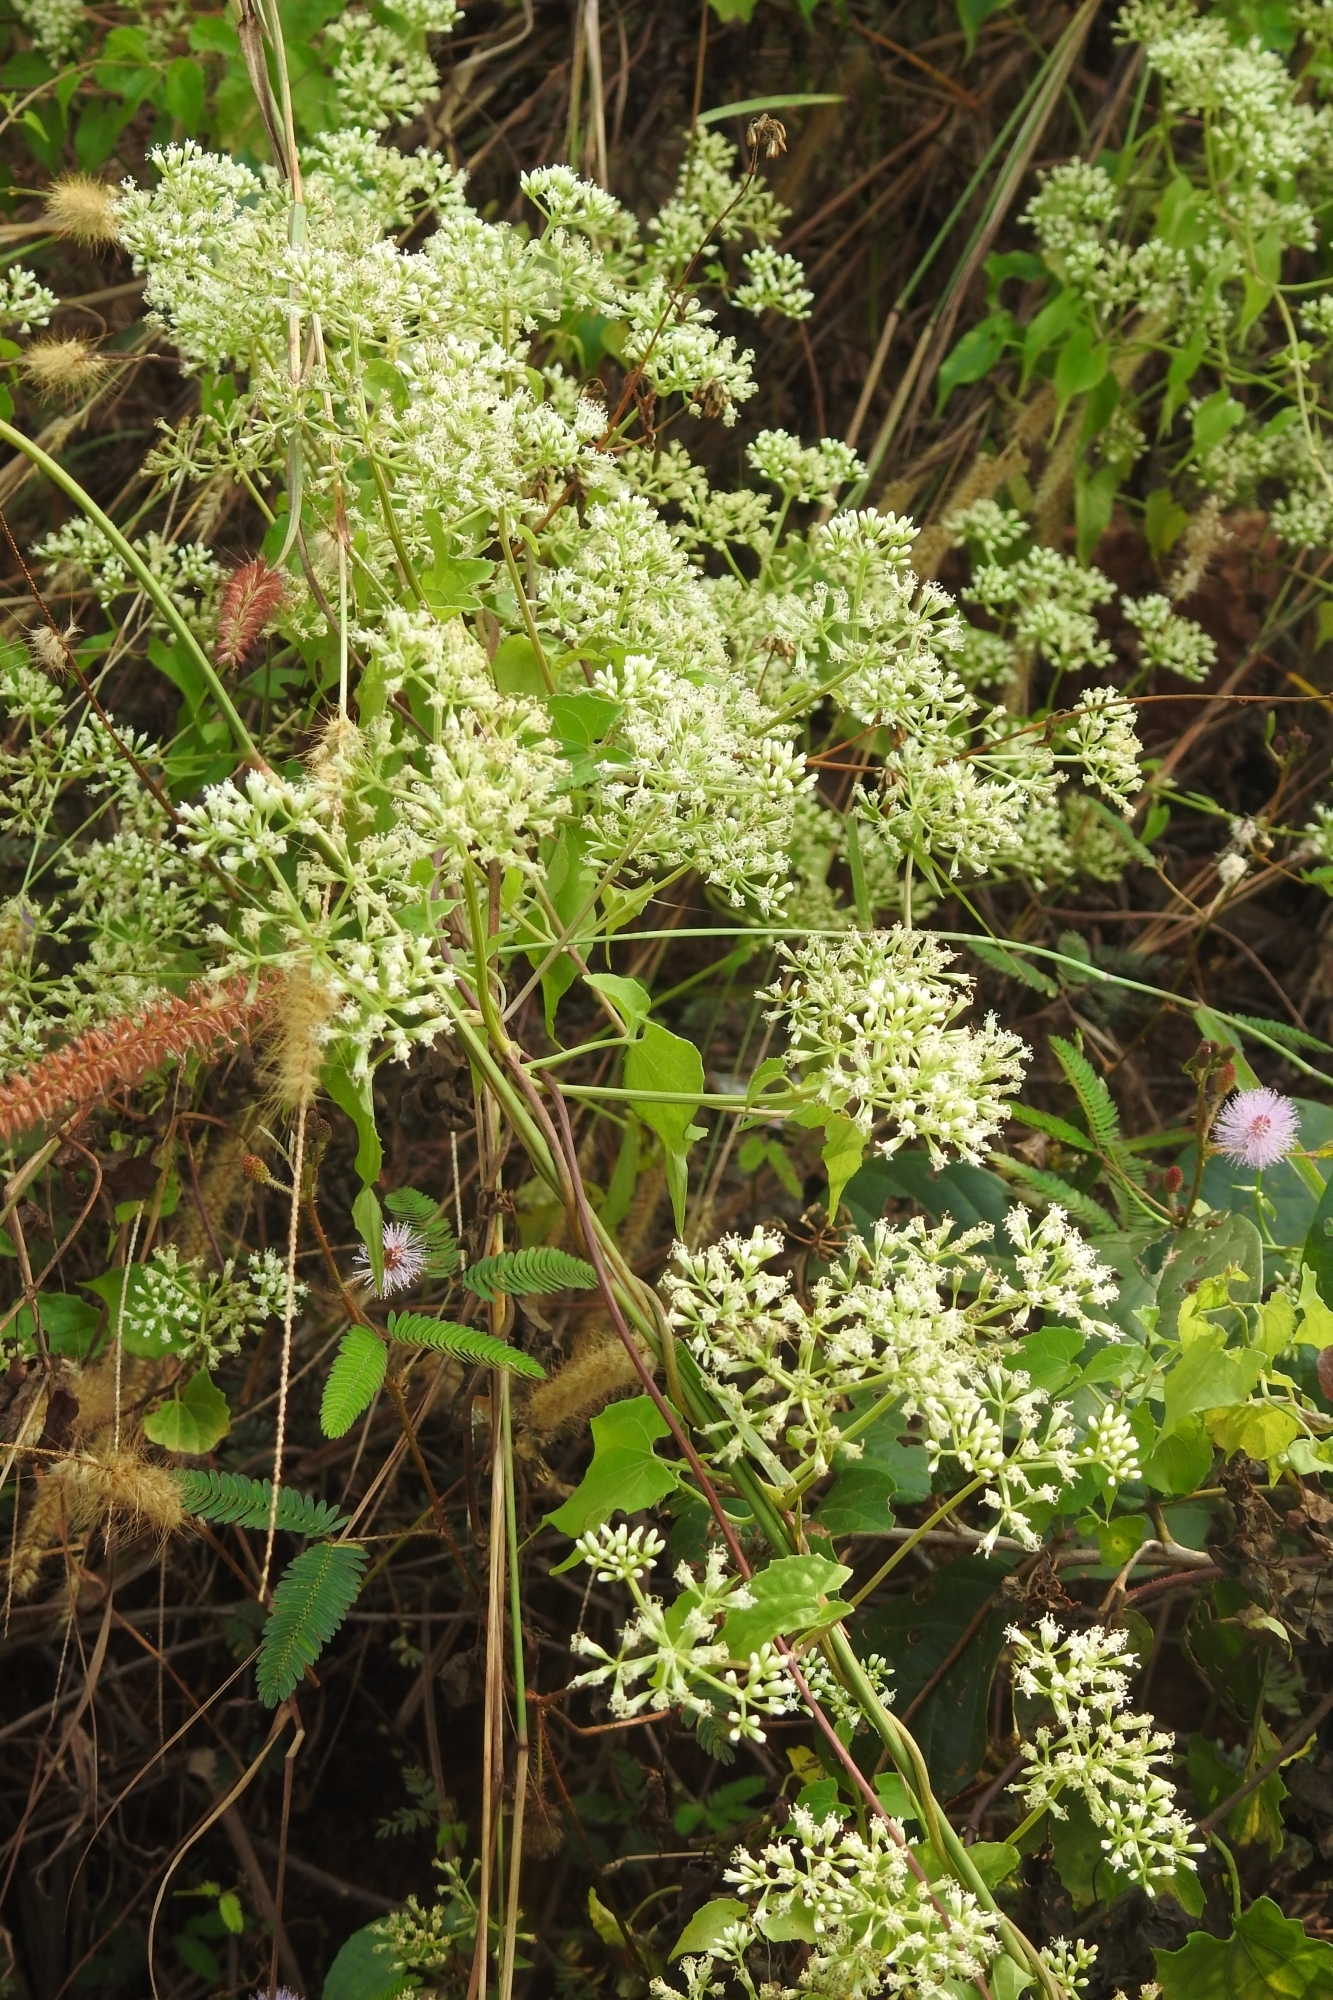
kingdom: Plantae
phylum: Tracheophyta
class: Magnoliopsida
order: Asterales
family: Asteraceae
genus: Mikania
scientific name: Mikania scandens
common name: Climbing hempvine
